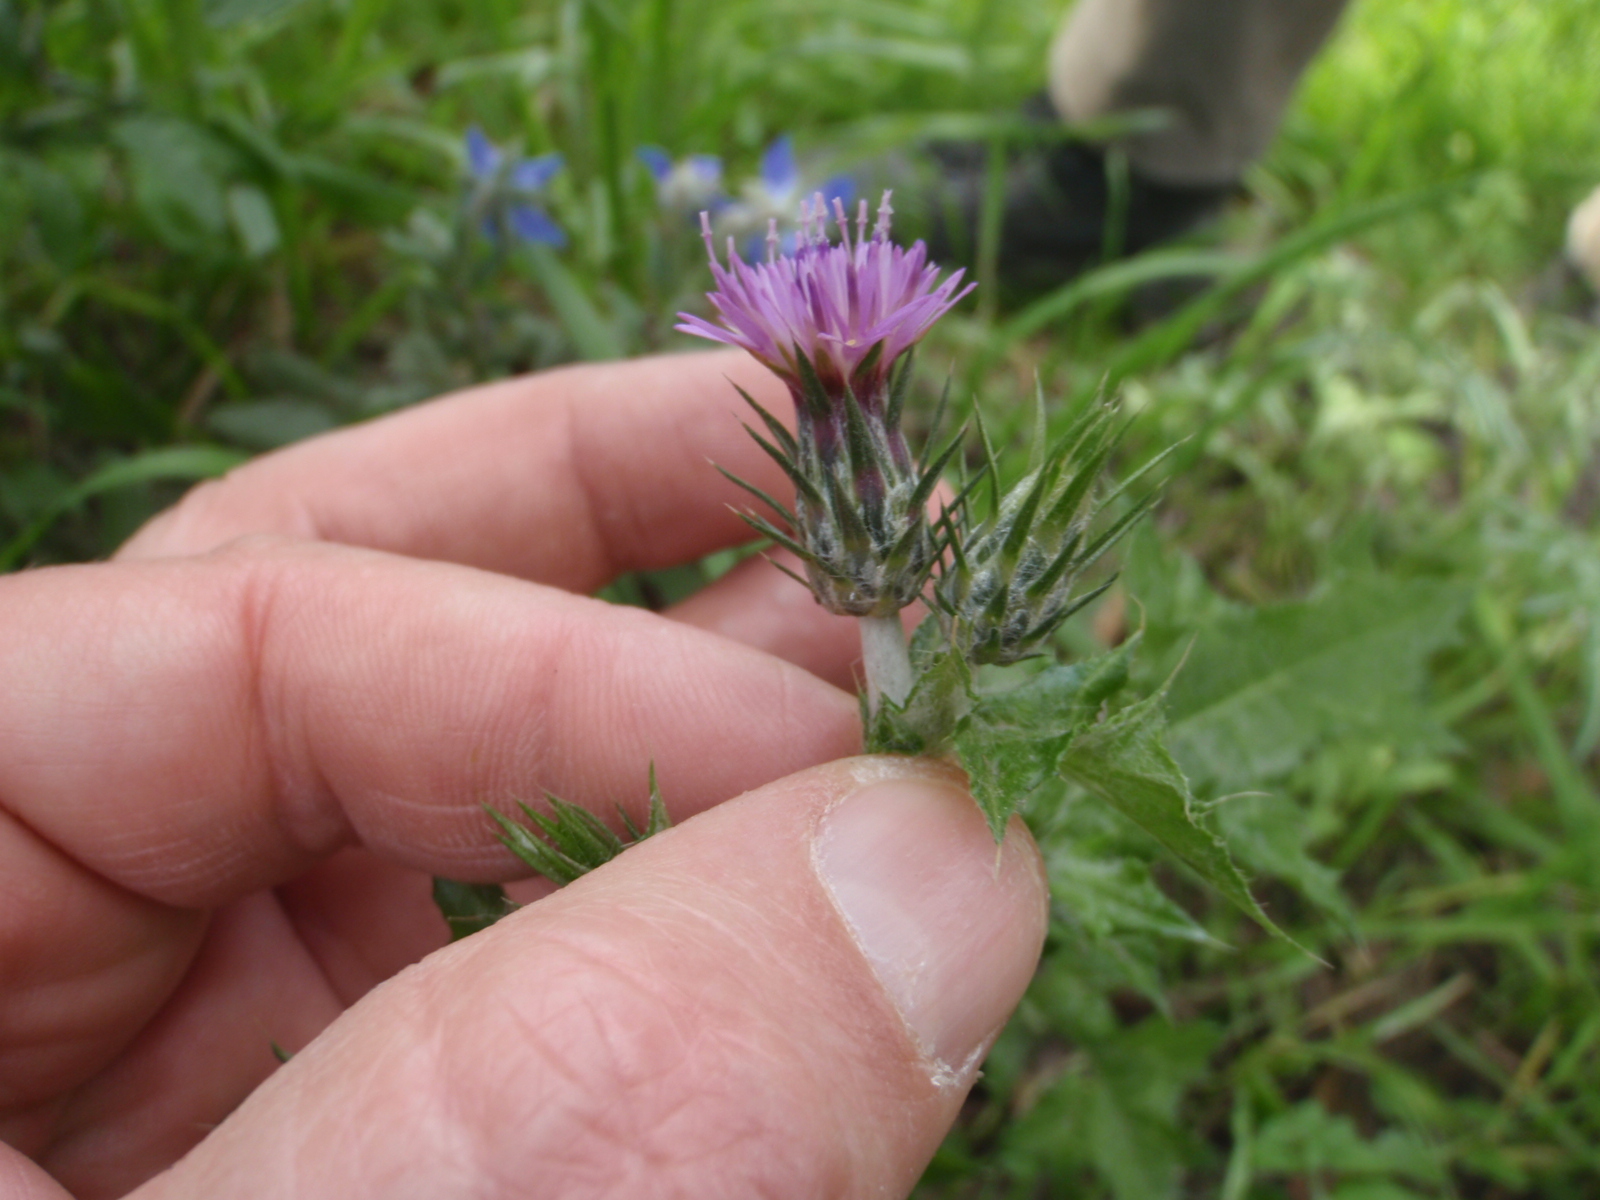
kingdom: Plantae
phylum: Tracheophyta
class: Magnoliopsida
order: Asterales
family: Asteraceae
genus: Carduus
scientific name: Carduus pycnocephalus
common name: Plymouth thistle
